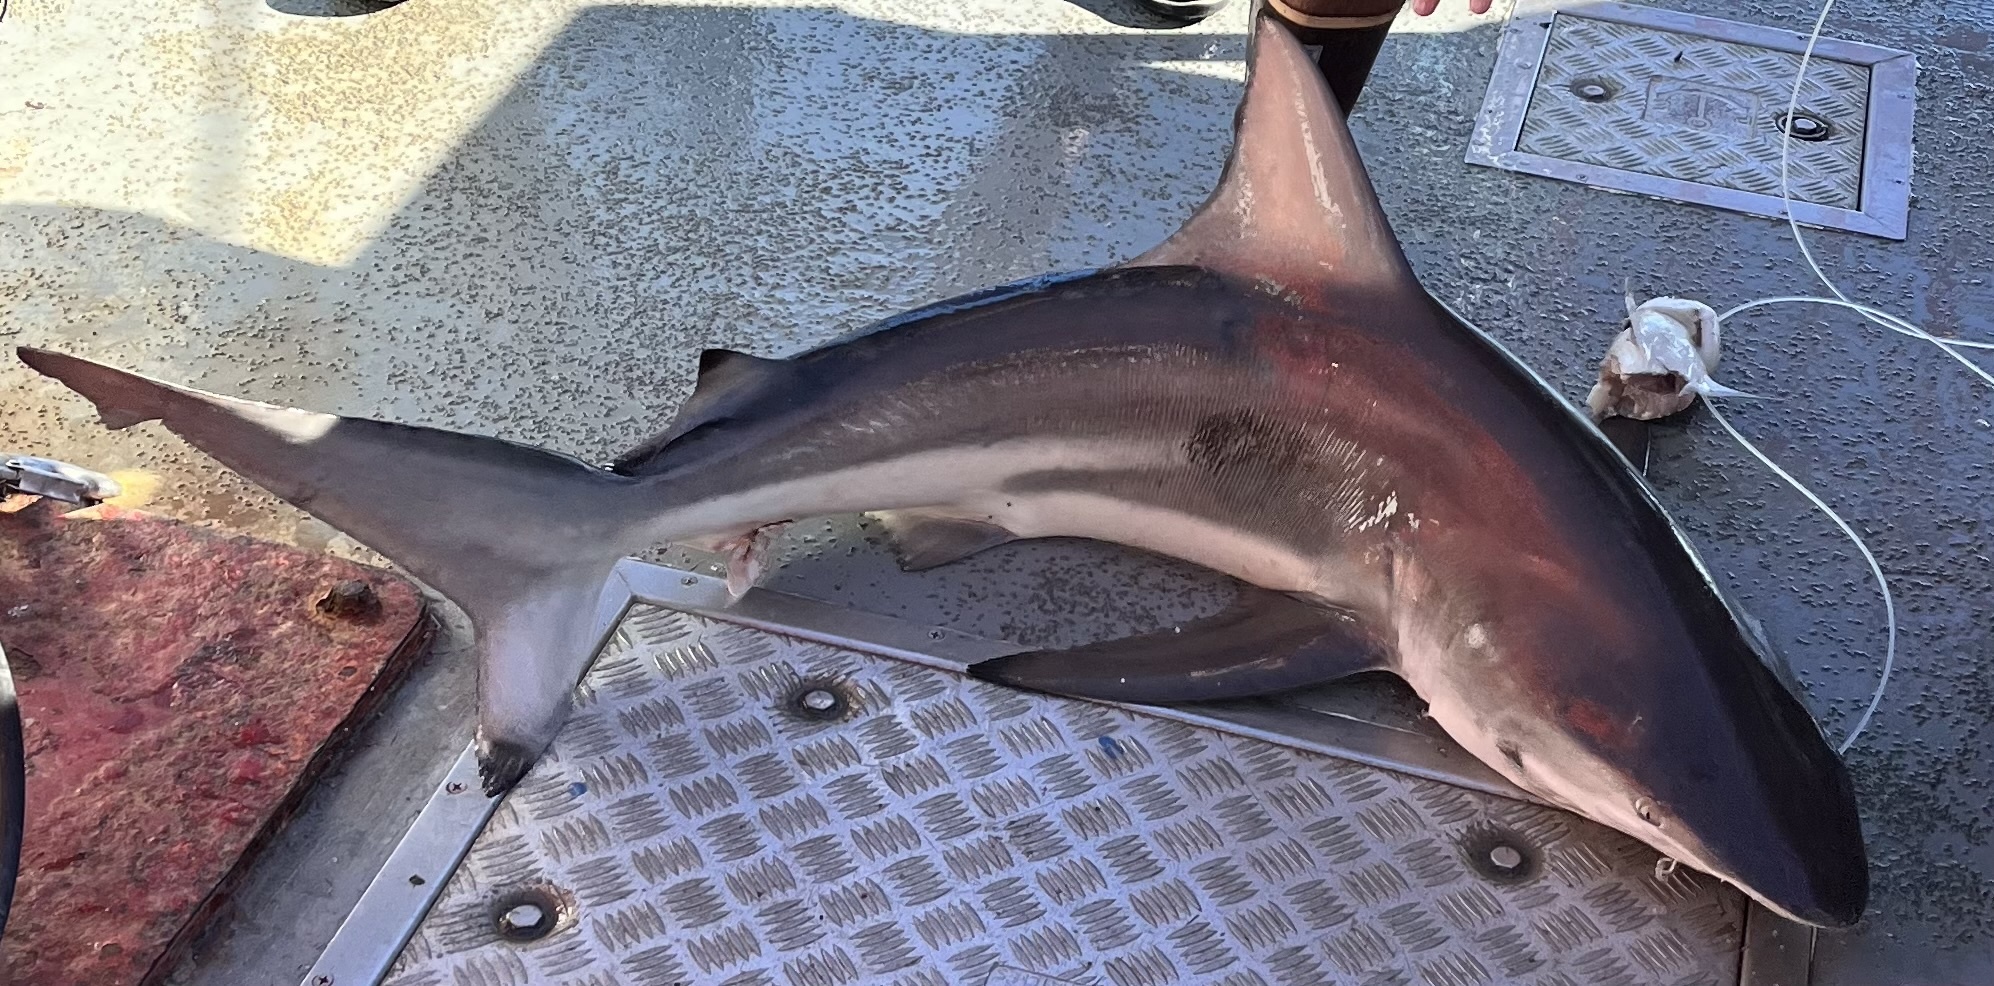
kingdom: Animalia
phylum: Chordata
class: Elasmobranchii
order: Carcharhiniformes
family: Carcharhinidae
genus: Carcharhinus
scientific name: Carcharhinus limbatus
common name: Blacktip shark
